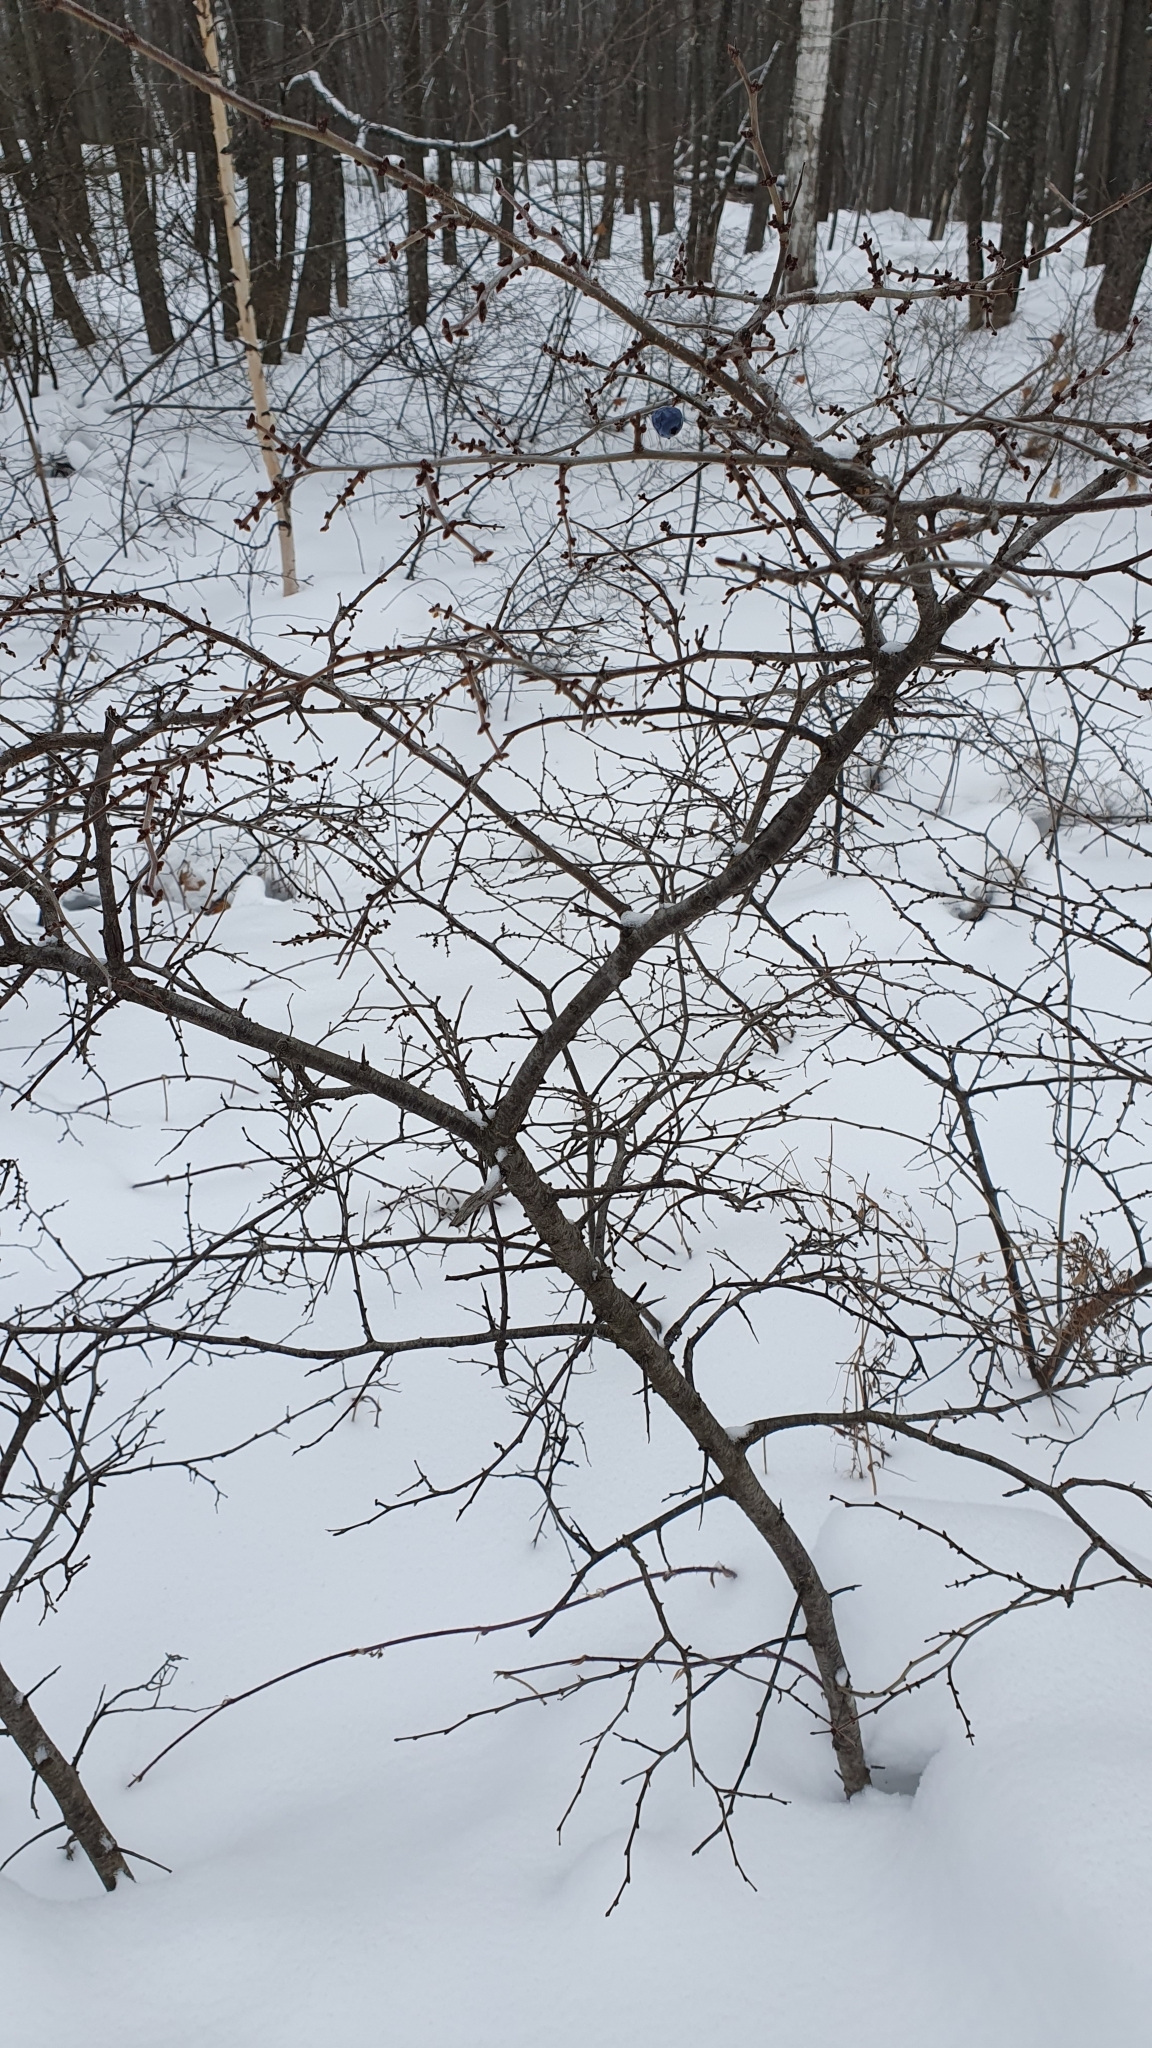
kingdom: Plantae
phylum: Tracheophyta
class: Magnoliopsida
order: Rosales
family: Rosaceae
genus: Prunus
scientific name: Prunus spinosa
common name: Blackthorn
